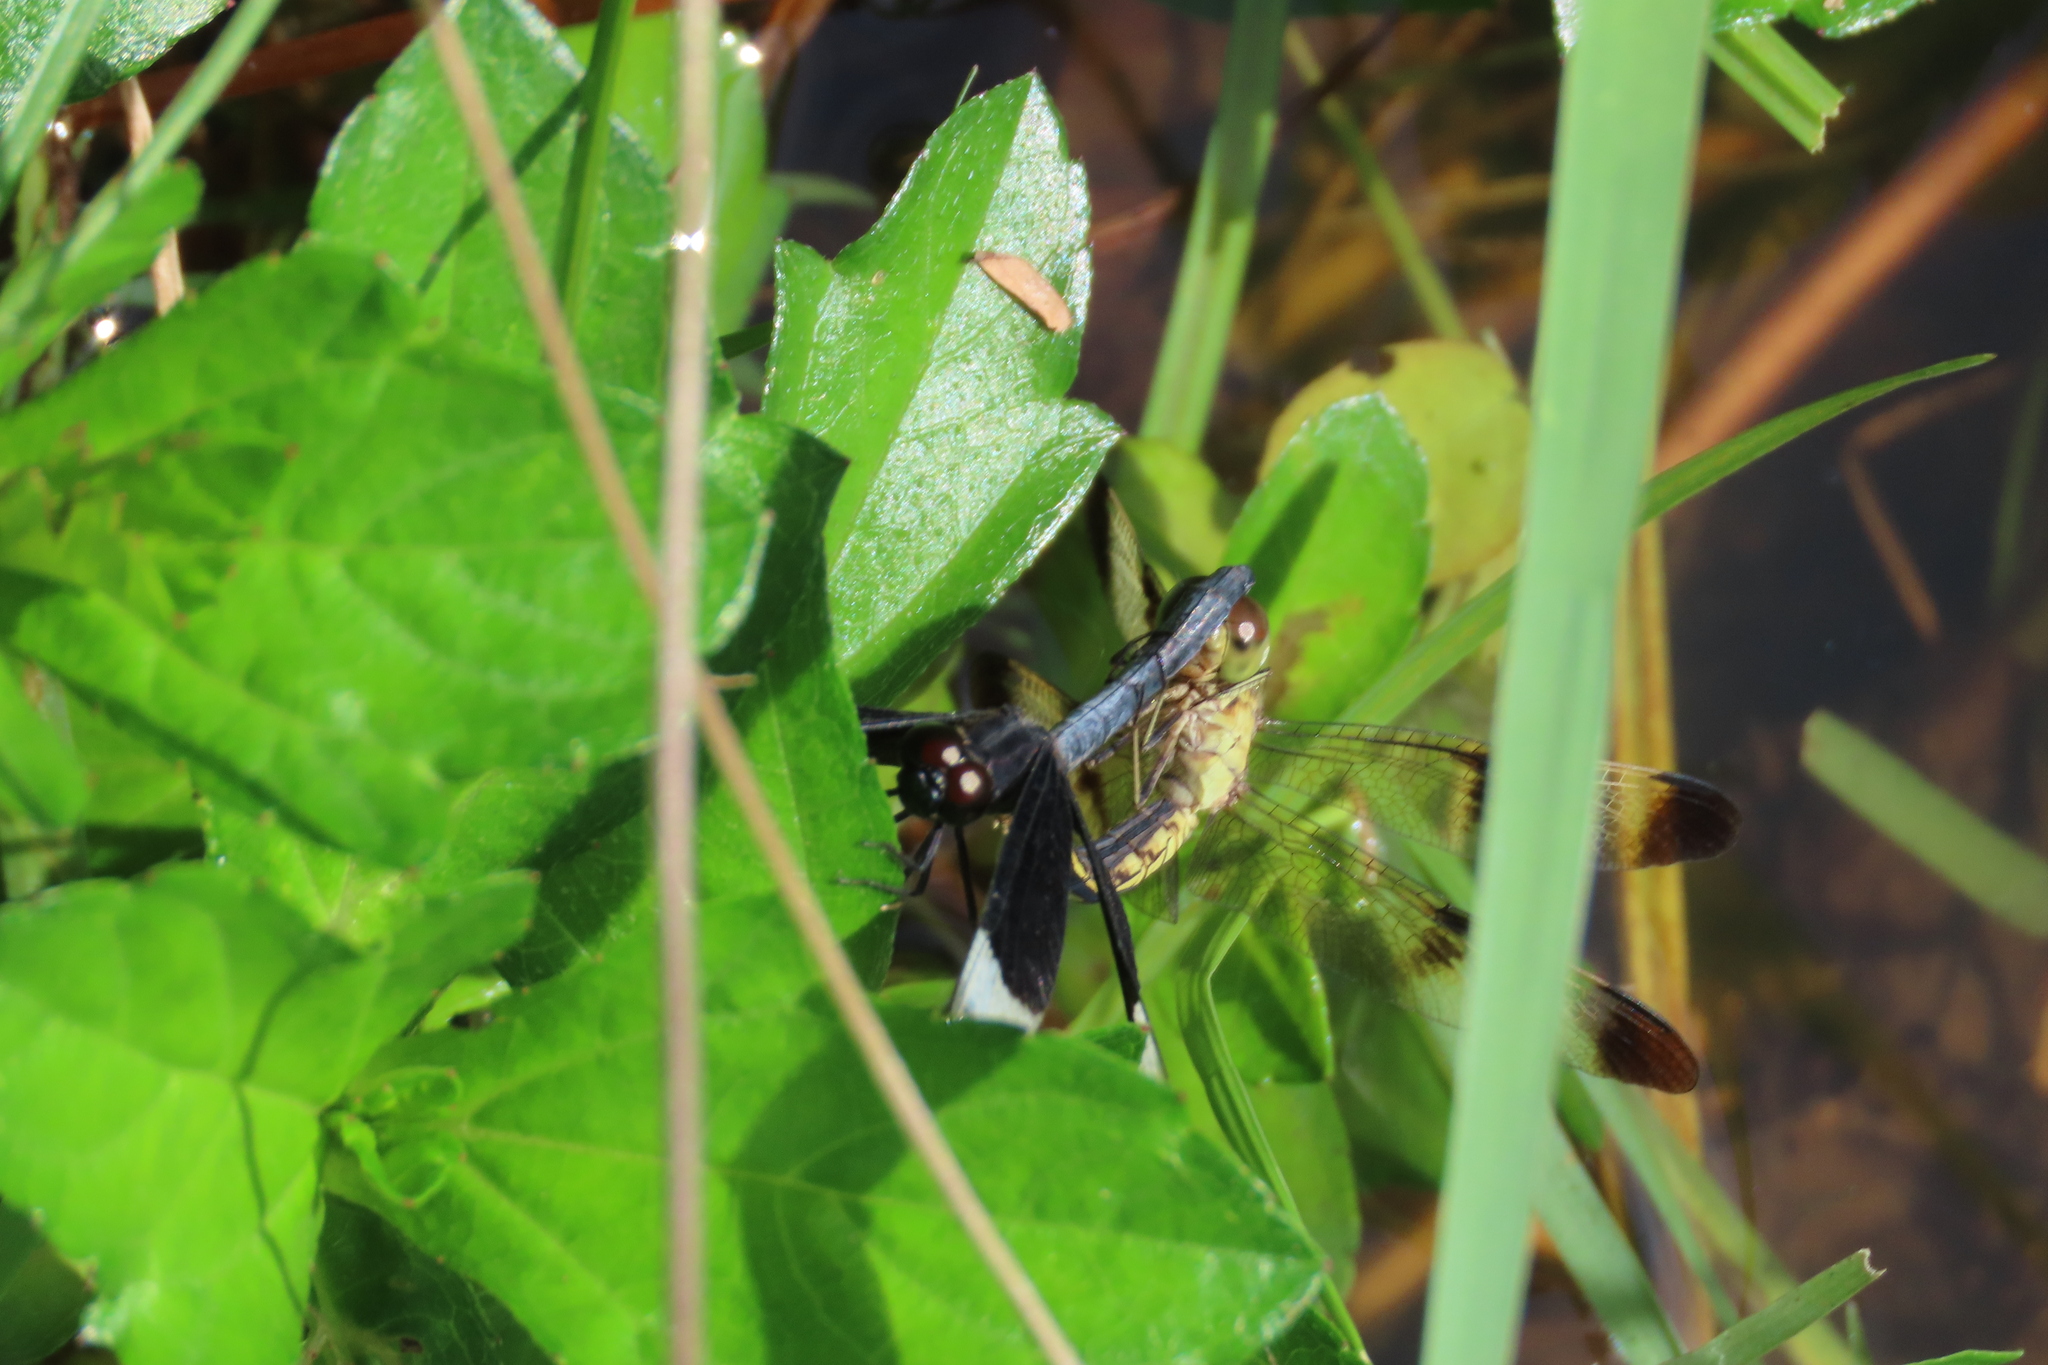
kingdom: Animalia
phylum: Arthropoda
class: Insecta
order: Odonata
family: Libellulidae
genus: Neurothemis
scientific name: Neurothemis tullia
